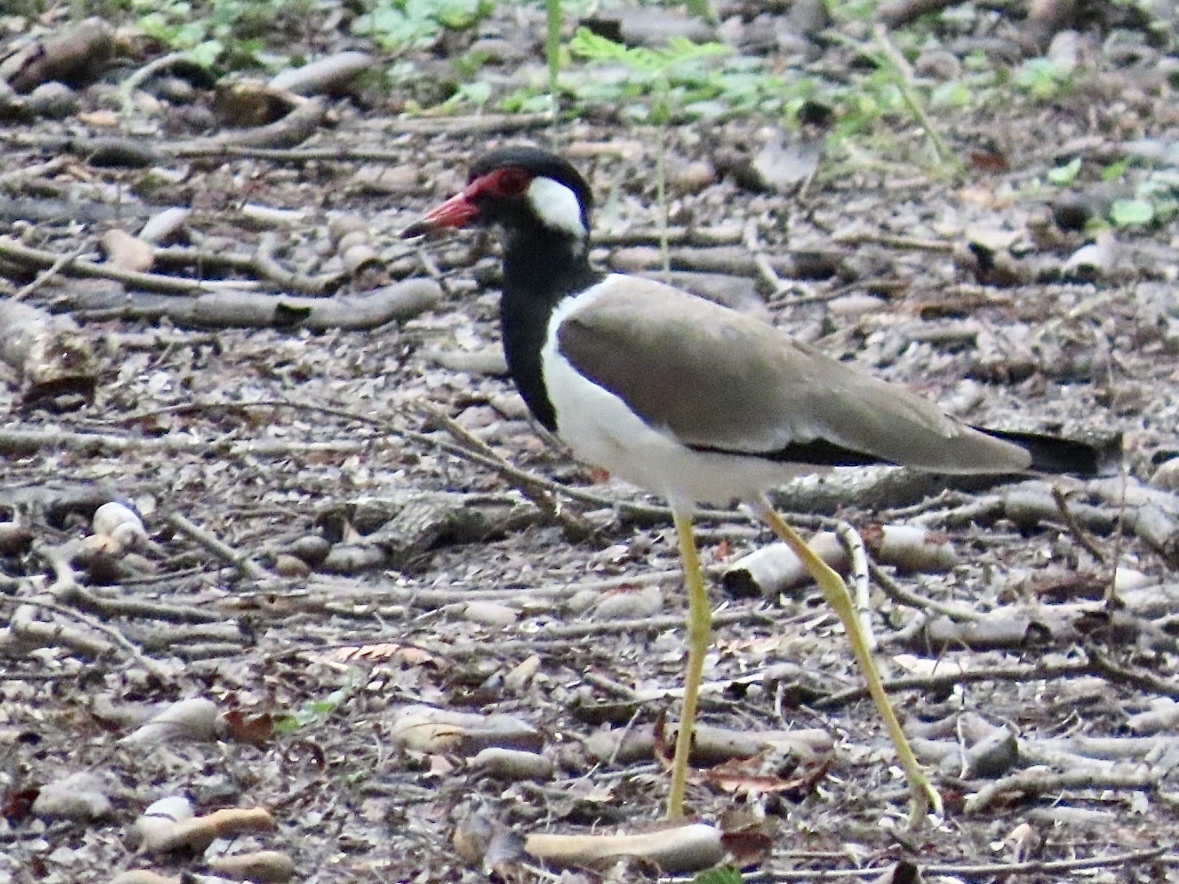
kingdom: Animalia
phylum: Chordata
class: Aves
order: Charadriiformes
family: Charadriidae
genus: Vanellus
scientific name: Vanellus indicus
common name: Red-wattled lapwing
